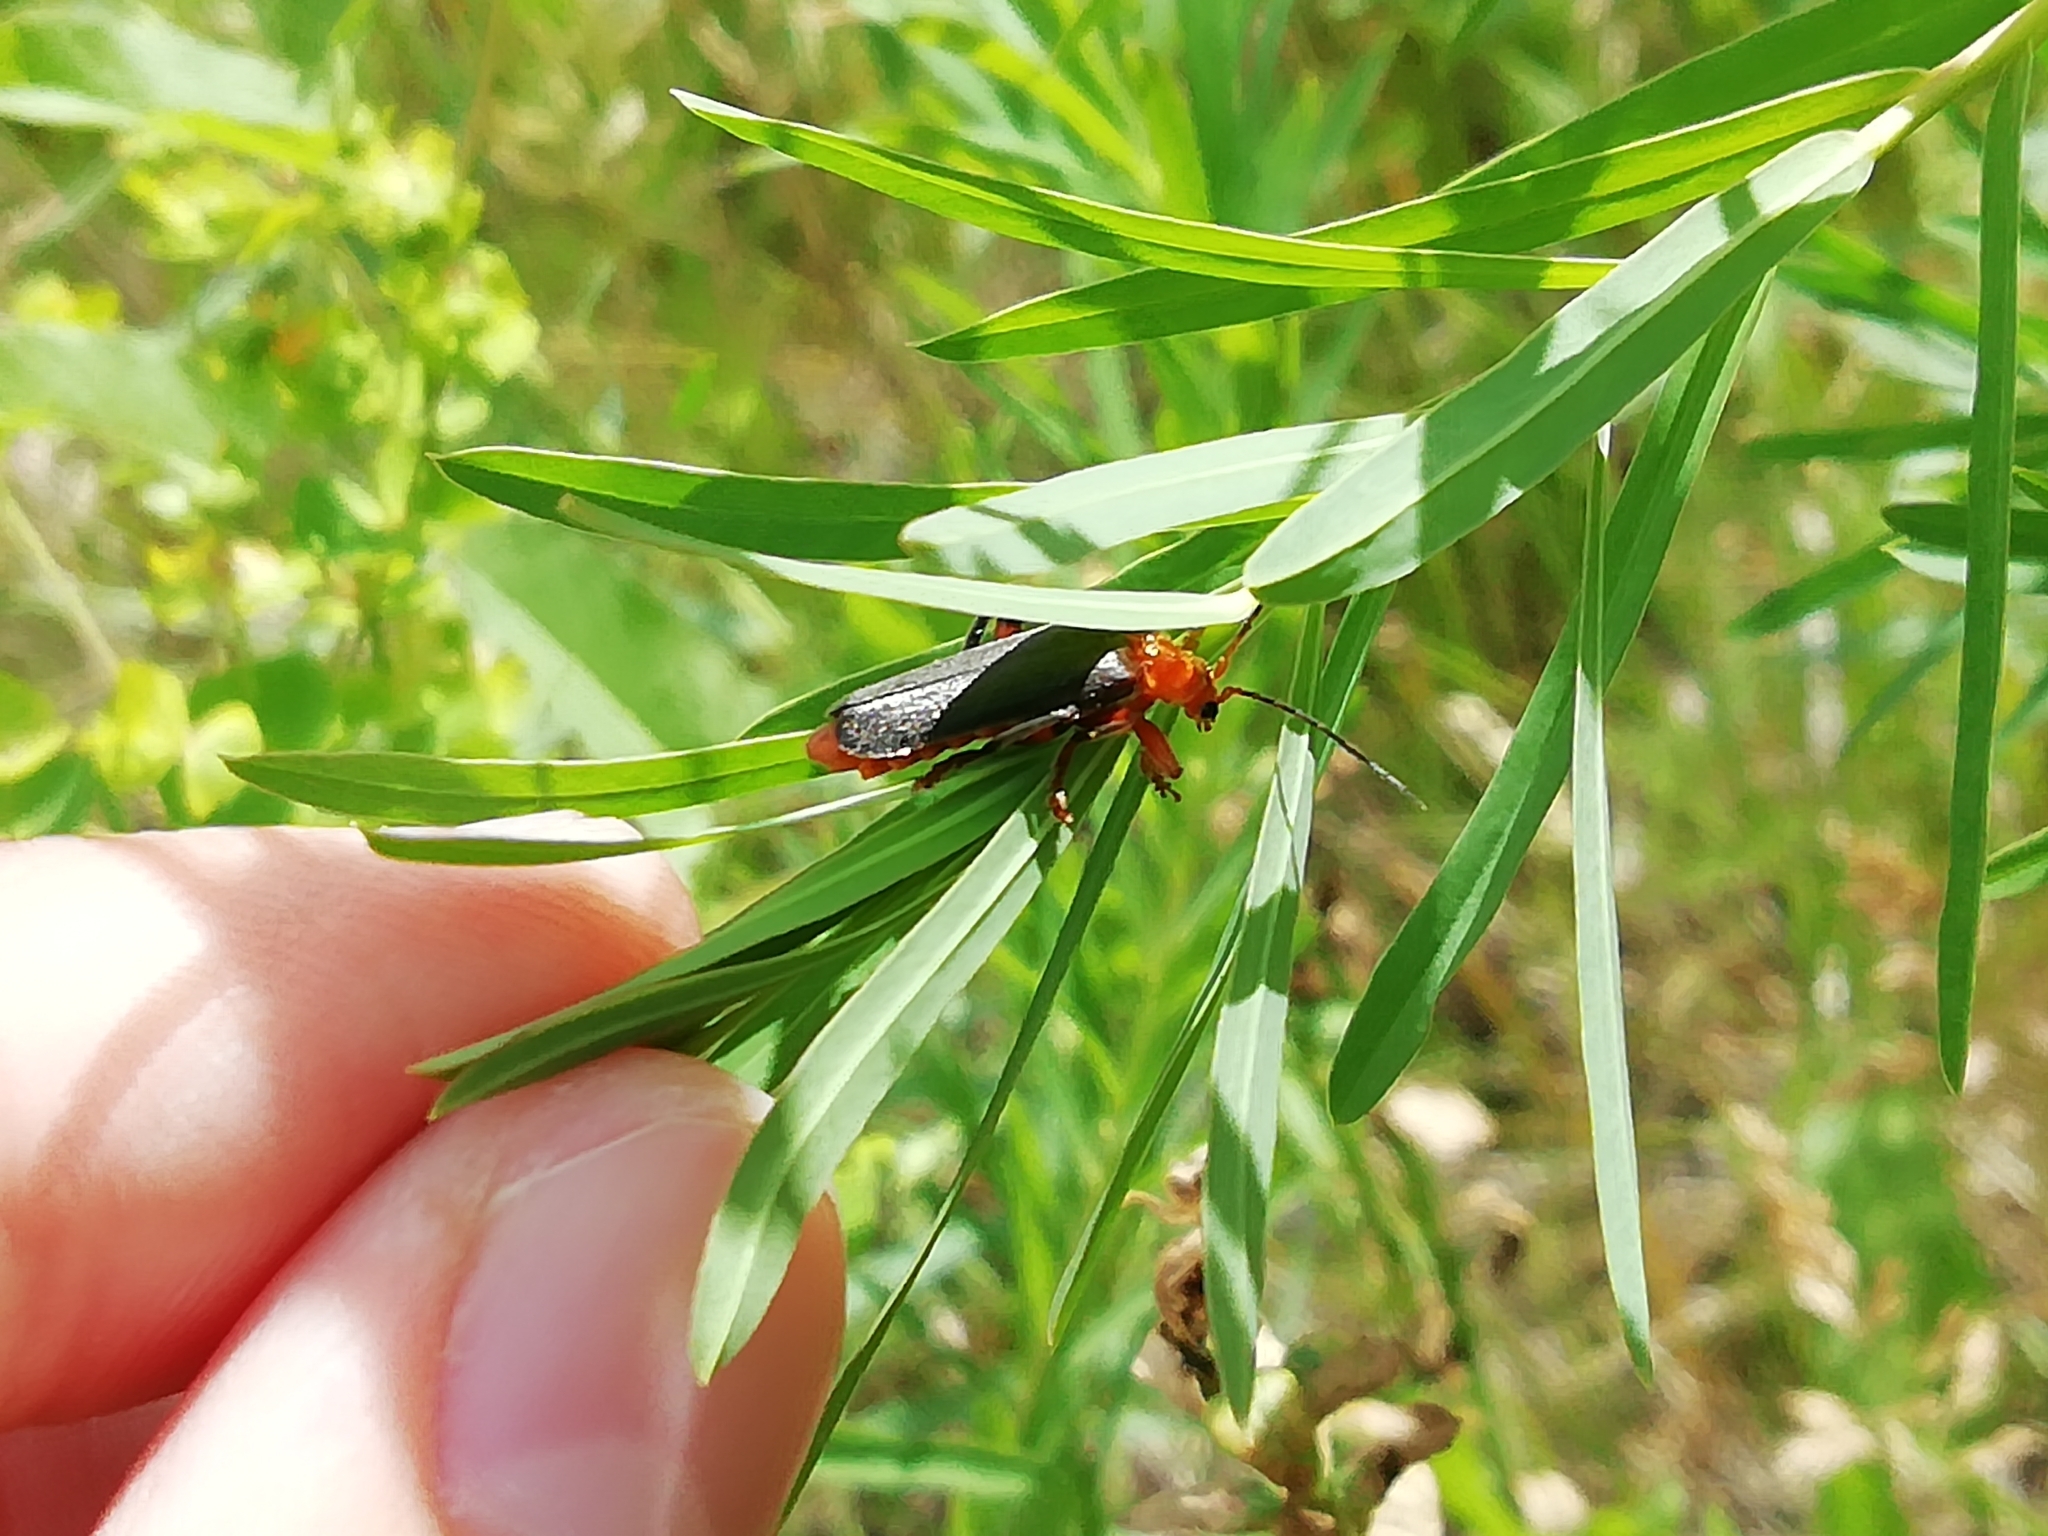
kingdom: Animalia
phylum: Arthropoda
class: Insecta
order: Coleoptera
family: Cantharidae
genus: Cantharis
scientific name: Cantharis livida
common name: Livid soldier beetle
